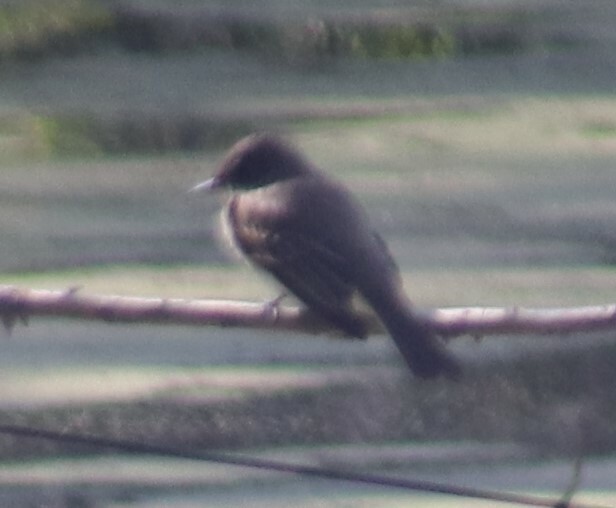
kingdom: Animalia
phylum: Chordata
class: Aves
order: Passeriformes
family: Tyrannidae
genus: Sayornis
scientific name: Sayornis phoebe
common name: Eastern phoebe
